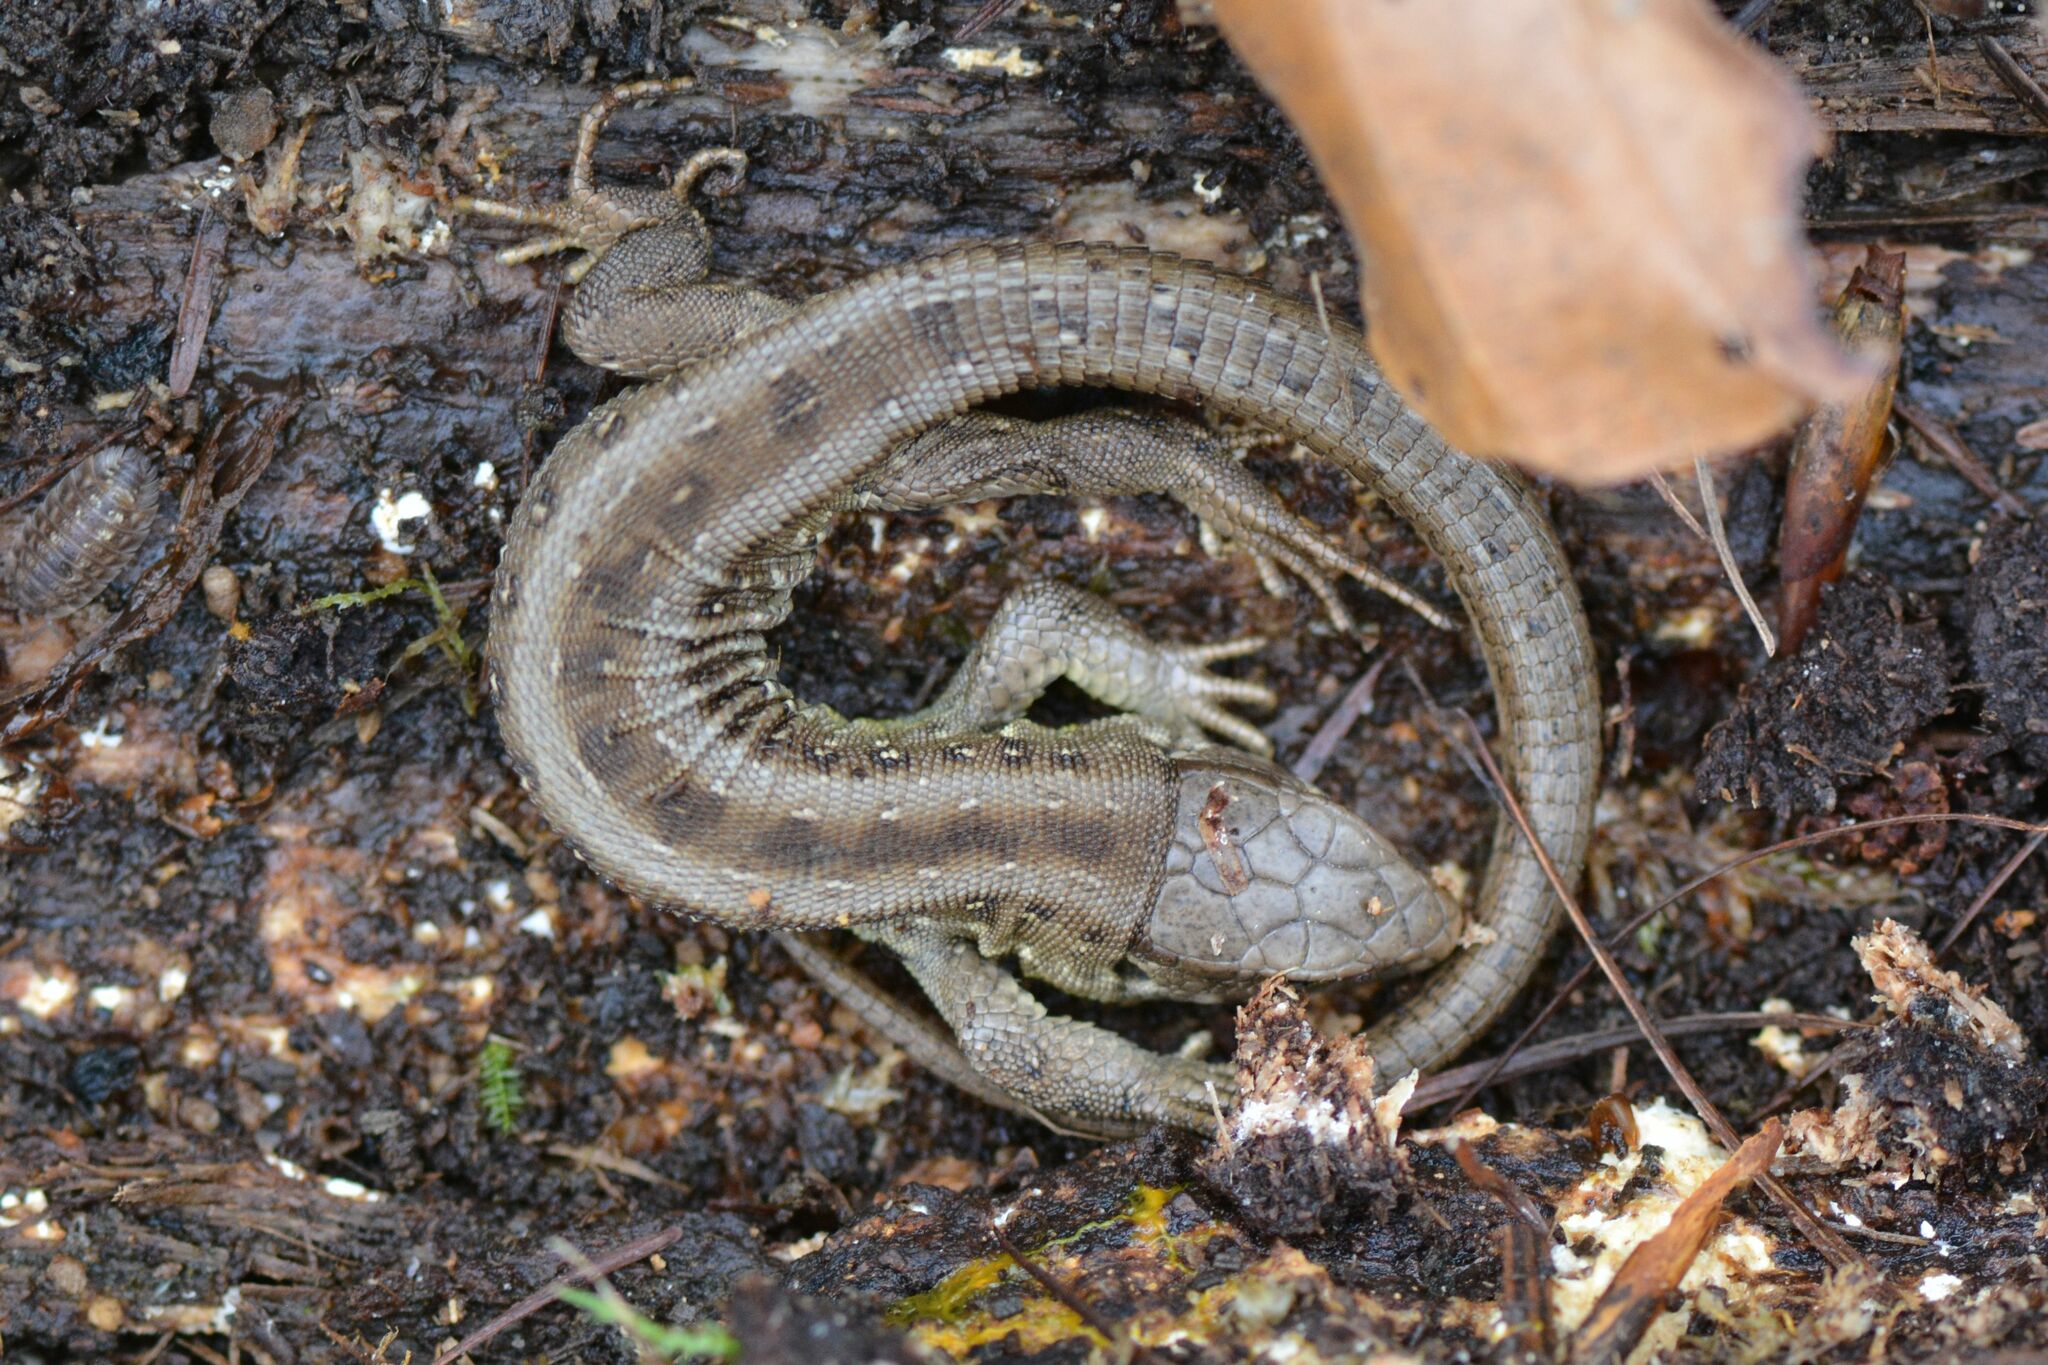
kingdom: Animalia
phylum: Chordata
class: Squamata
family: Lacertidae
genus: Lacerta
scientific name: Lacerta agilis
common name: Sand lizard
